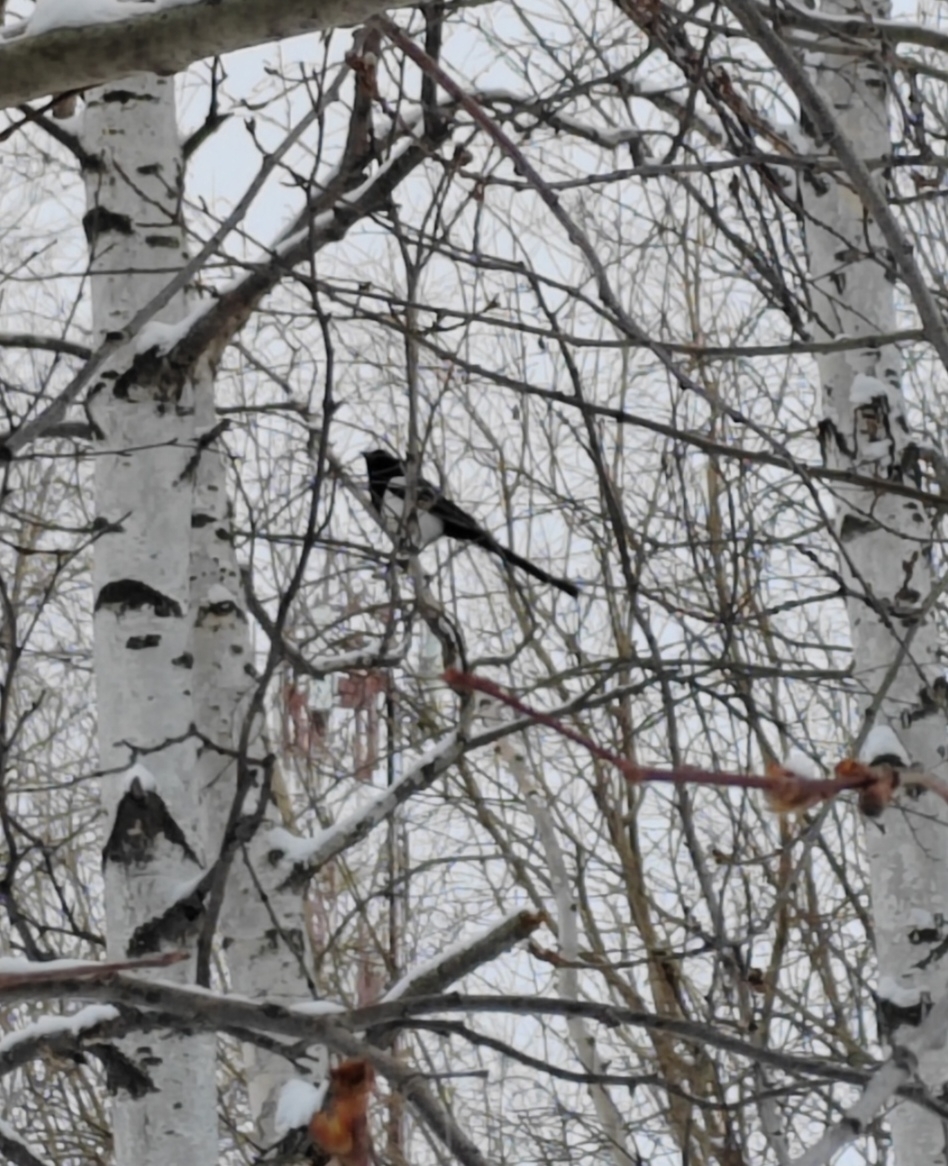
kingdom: Animalia
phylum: Chordata
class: Aves
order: Passeriformes
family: Corvidae
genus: Pica
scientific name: Pica pica
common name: Eurasian magpie
